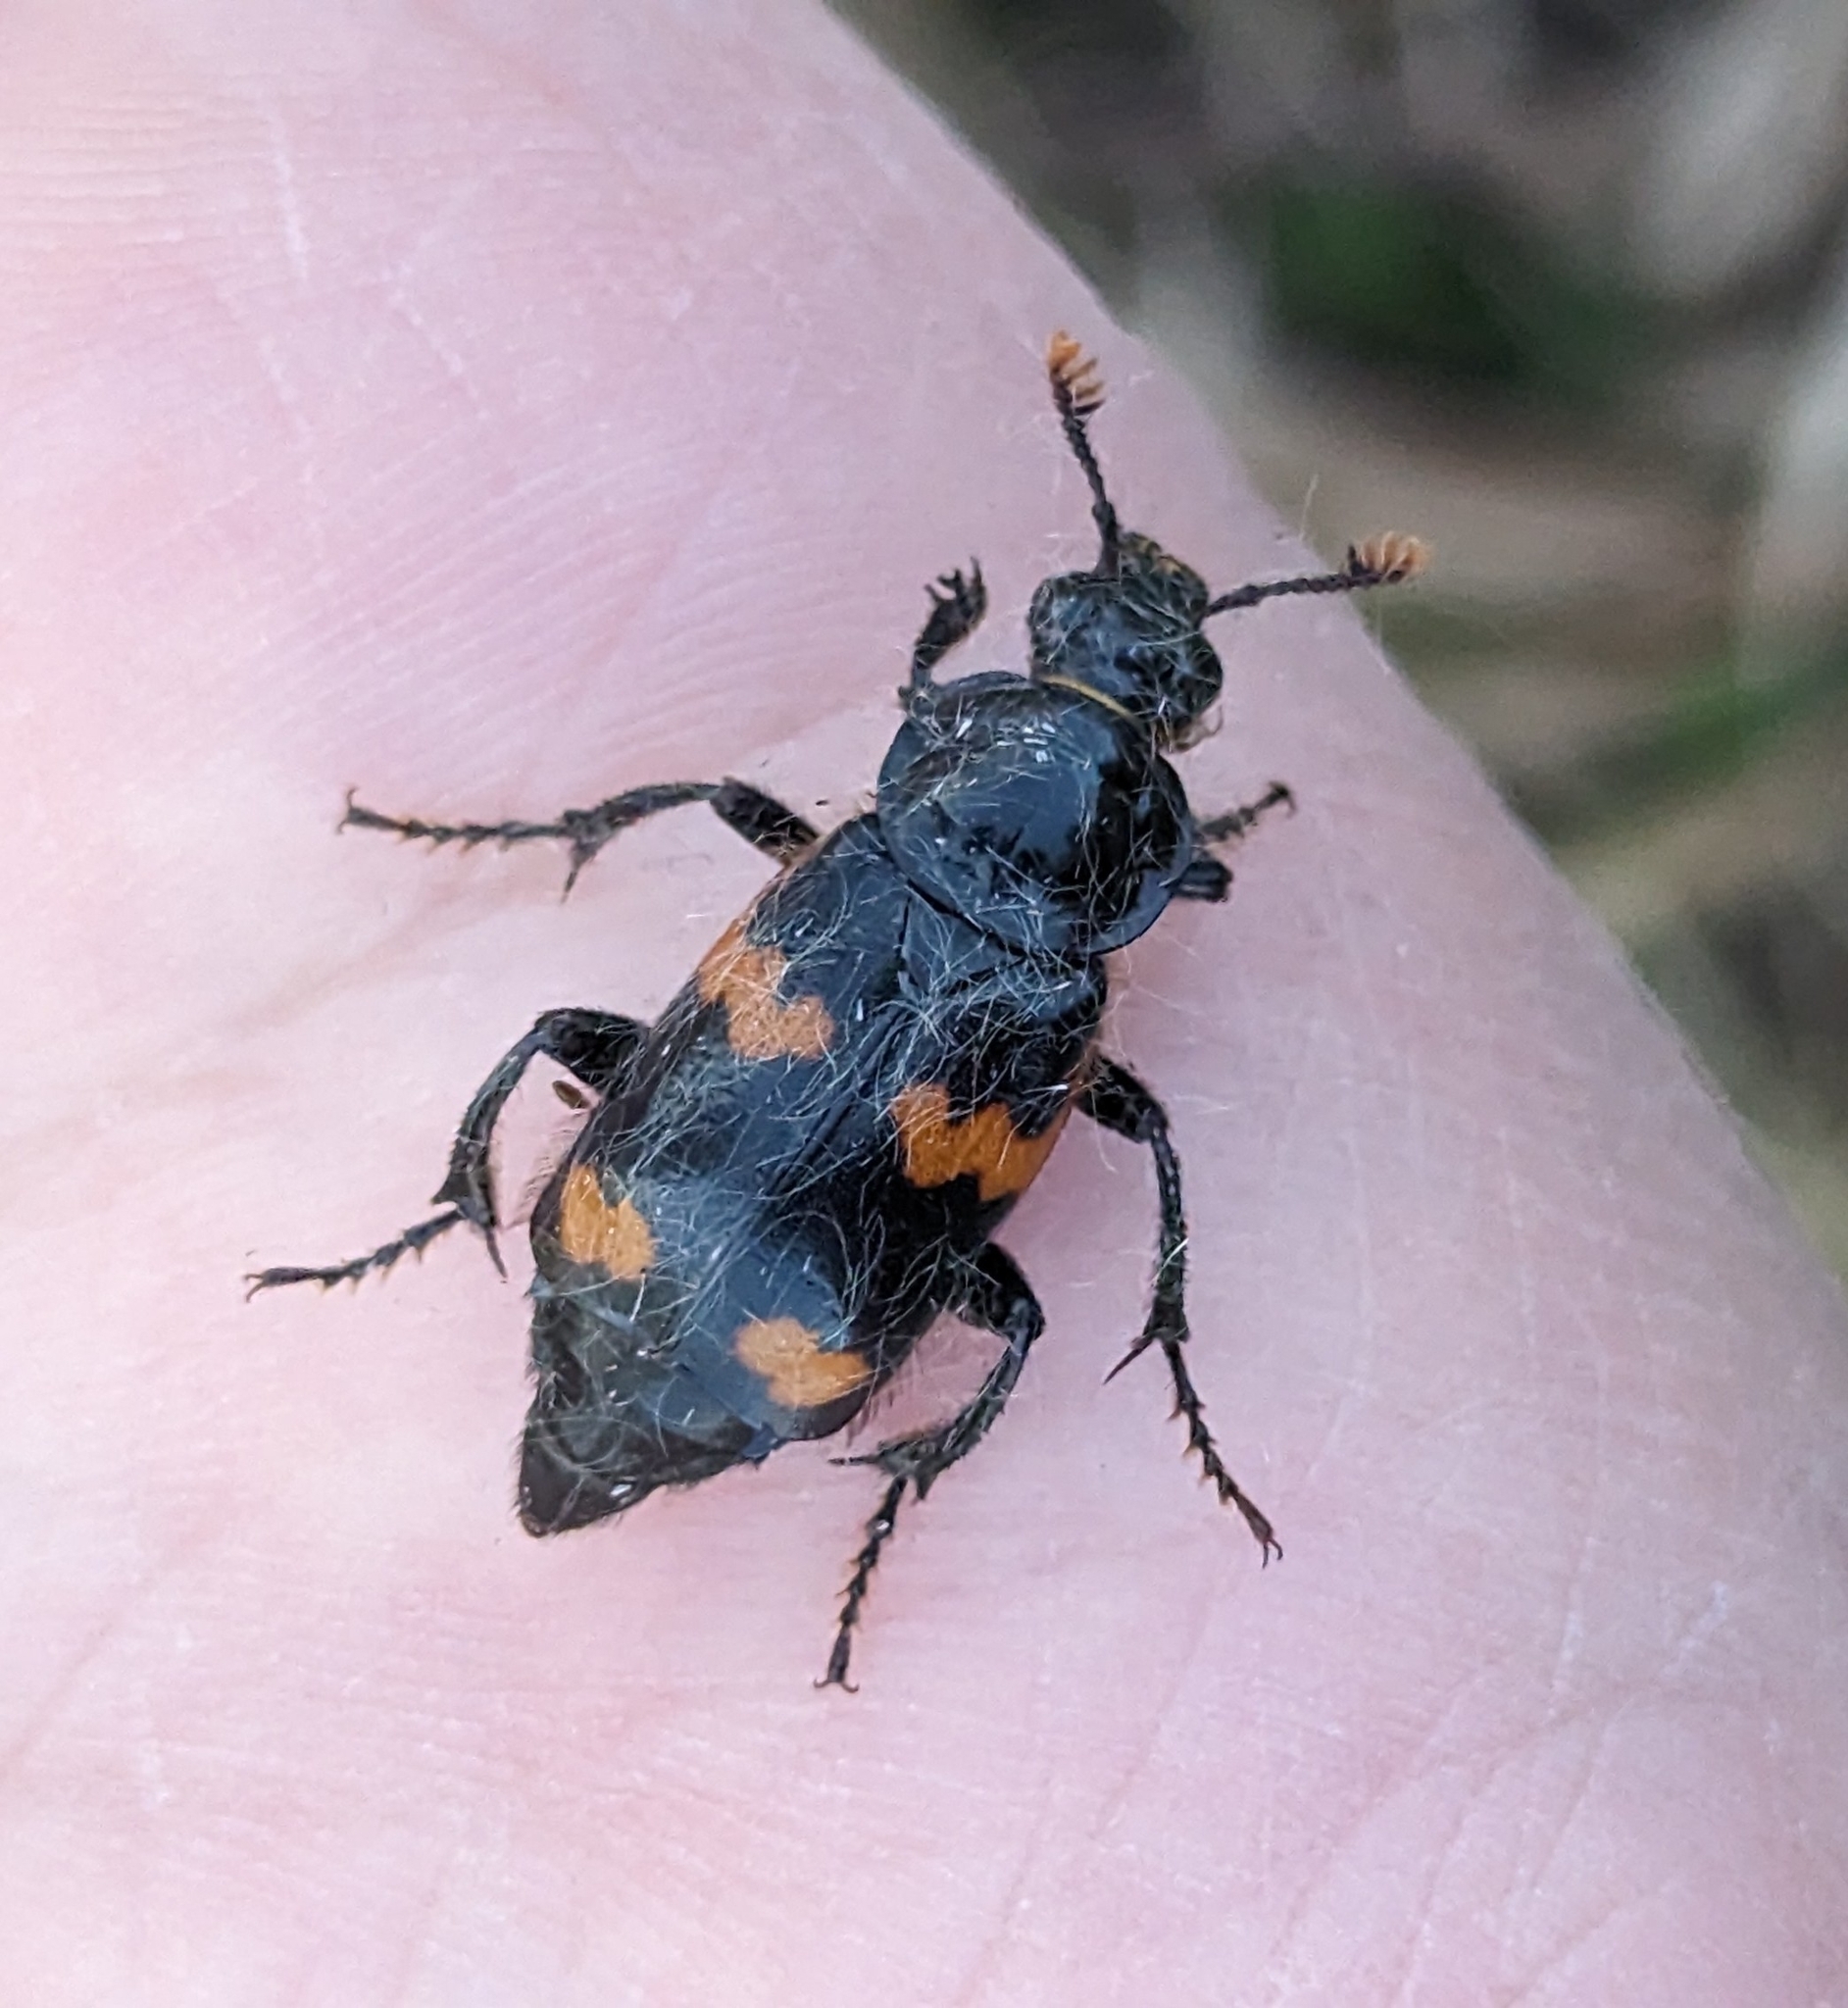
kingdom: Animalia
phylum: Arthropoda
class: Insecta
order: Coleoptera
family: Staphylinidae
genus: Nicrophorus
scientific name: Nicrophorus sayi
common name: Say's burying beetle
